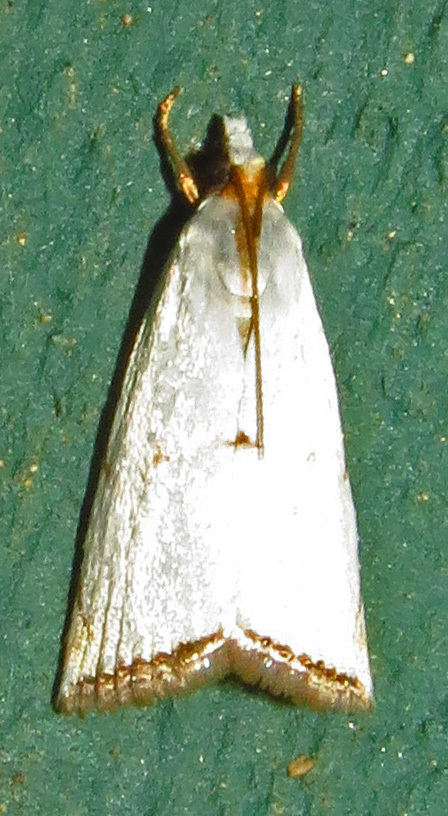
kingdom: Animalia
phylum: Arthropoda
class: Insecta
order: Lepidoptera
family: Crambidae
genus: Argyria
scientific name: Argyria pusillalis
